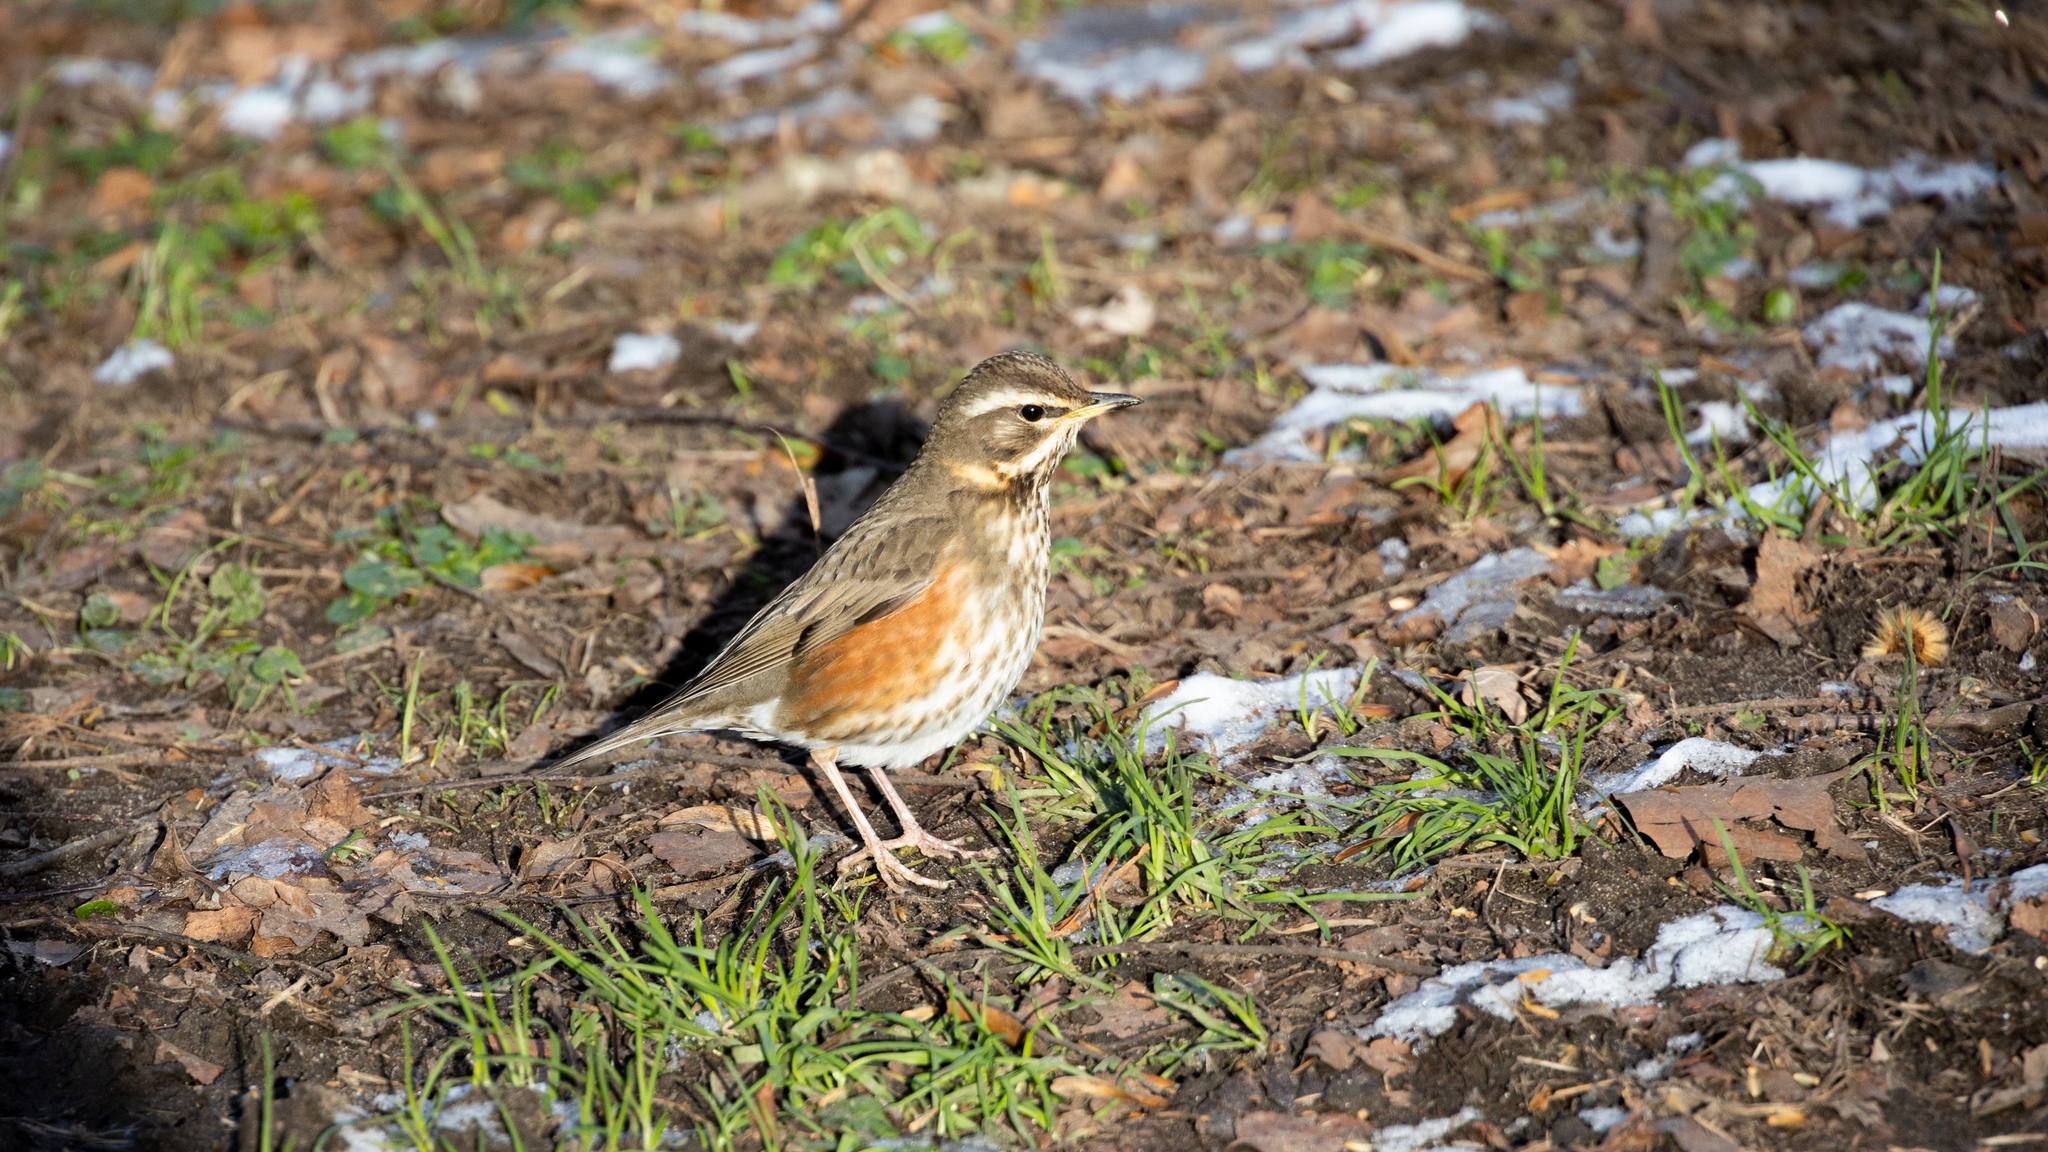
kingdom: Animalia
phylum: Chordata
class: Aves
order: Passeriformes
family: Turdidae
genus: Turdus
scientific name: Turdus iliacus
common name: Redwing
